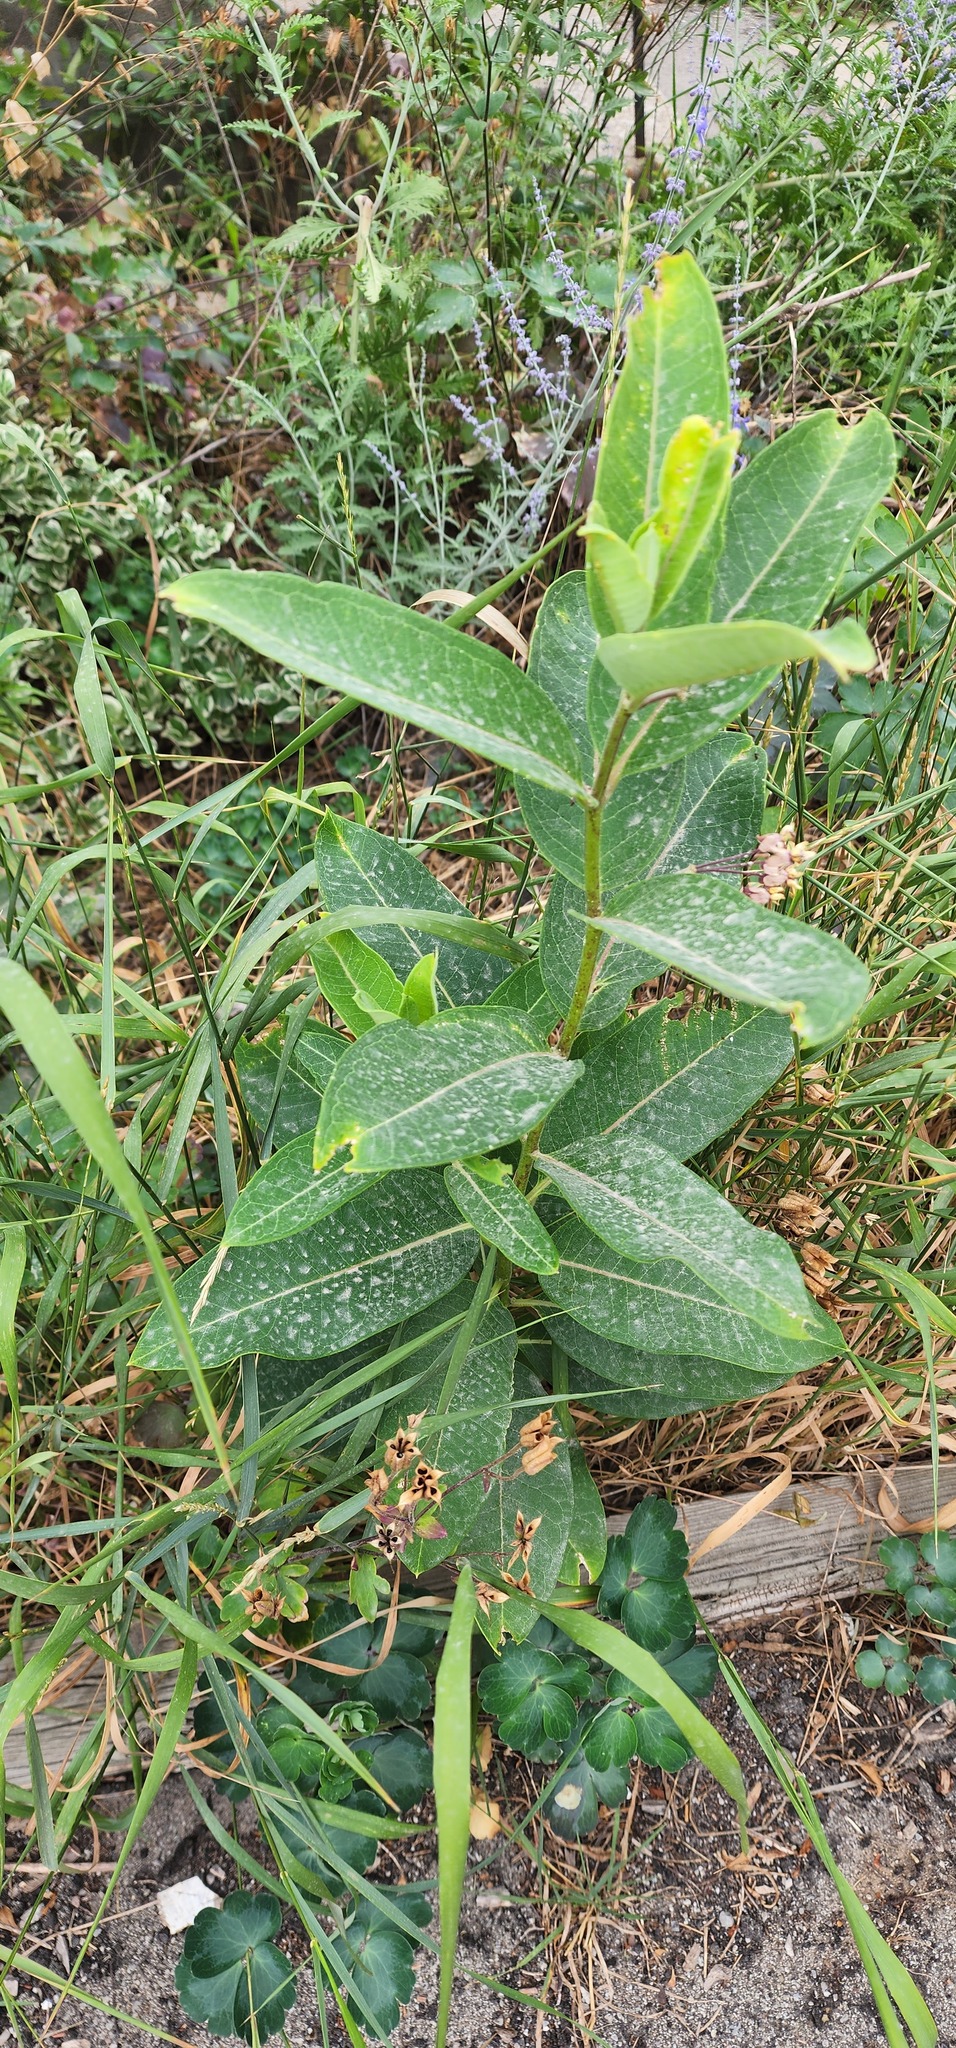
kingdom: Plantae
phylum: Tracheophyta
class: Magnoliopsida
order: Gentianales
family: Apocynaceae
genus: Asclepias
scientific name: Asclepias syriaca
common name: Common milkweed
